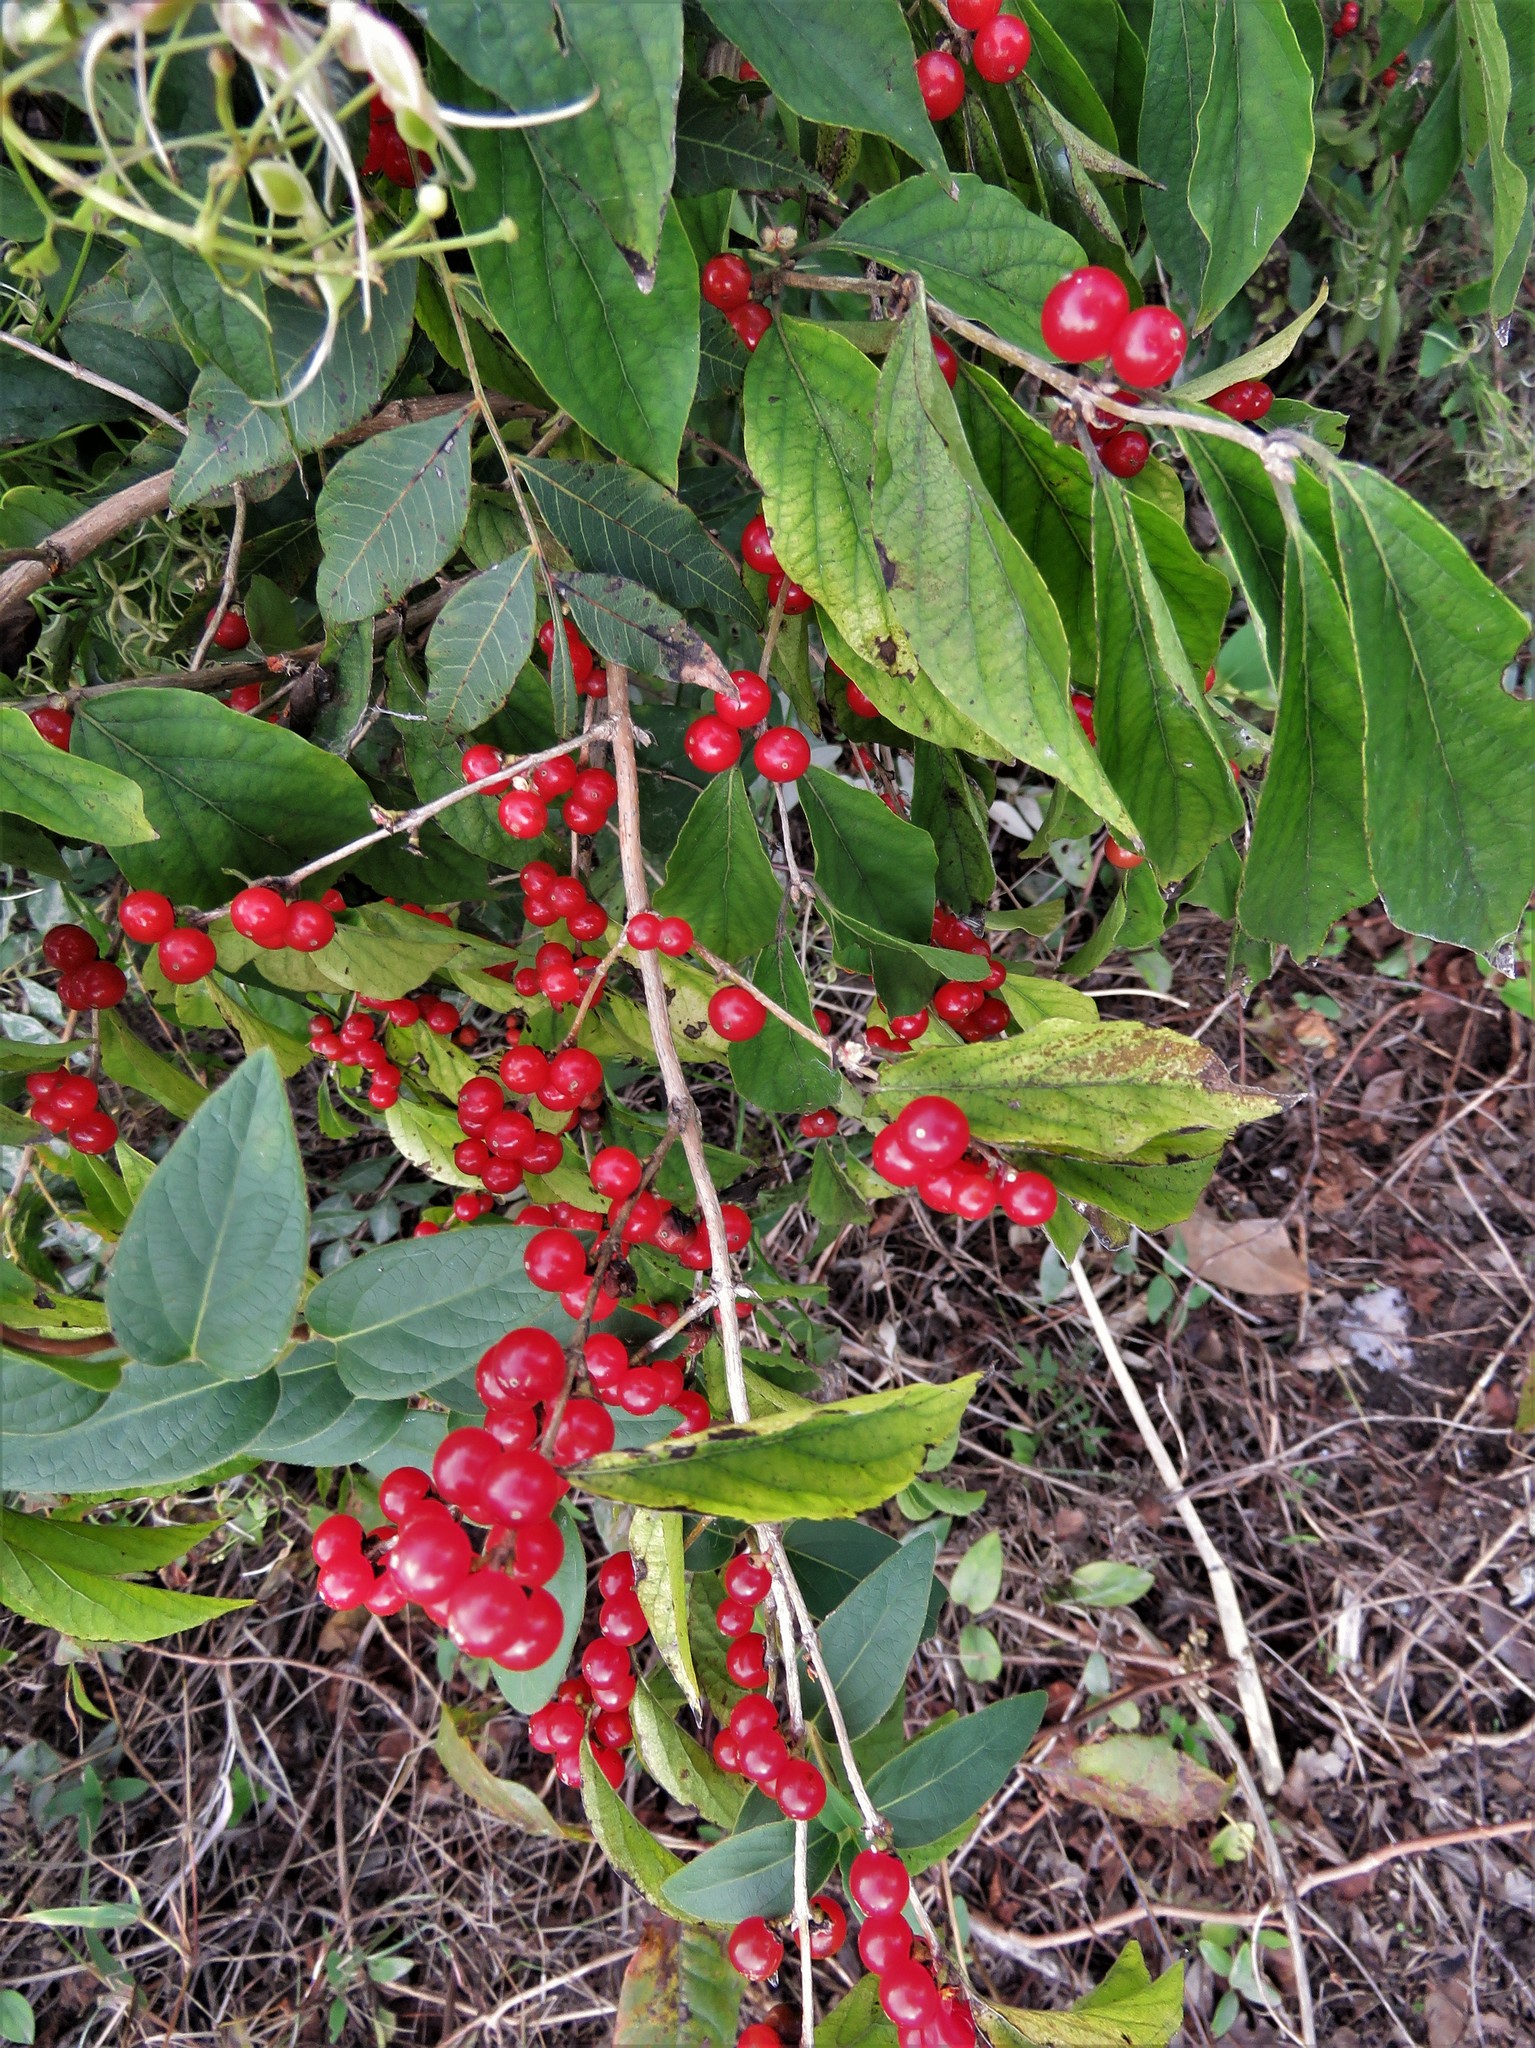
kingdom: Plantae
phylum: Tracheophyta
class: Magnoliopsida
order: Dipsacales
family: Caprifoliaceae
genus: Lonicera
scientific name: Lonicera maackii
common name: Amur honeysuckle
